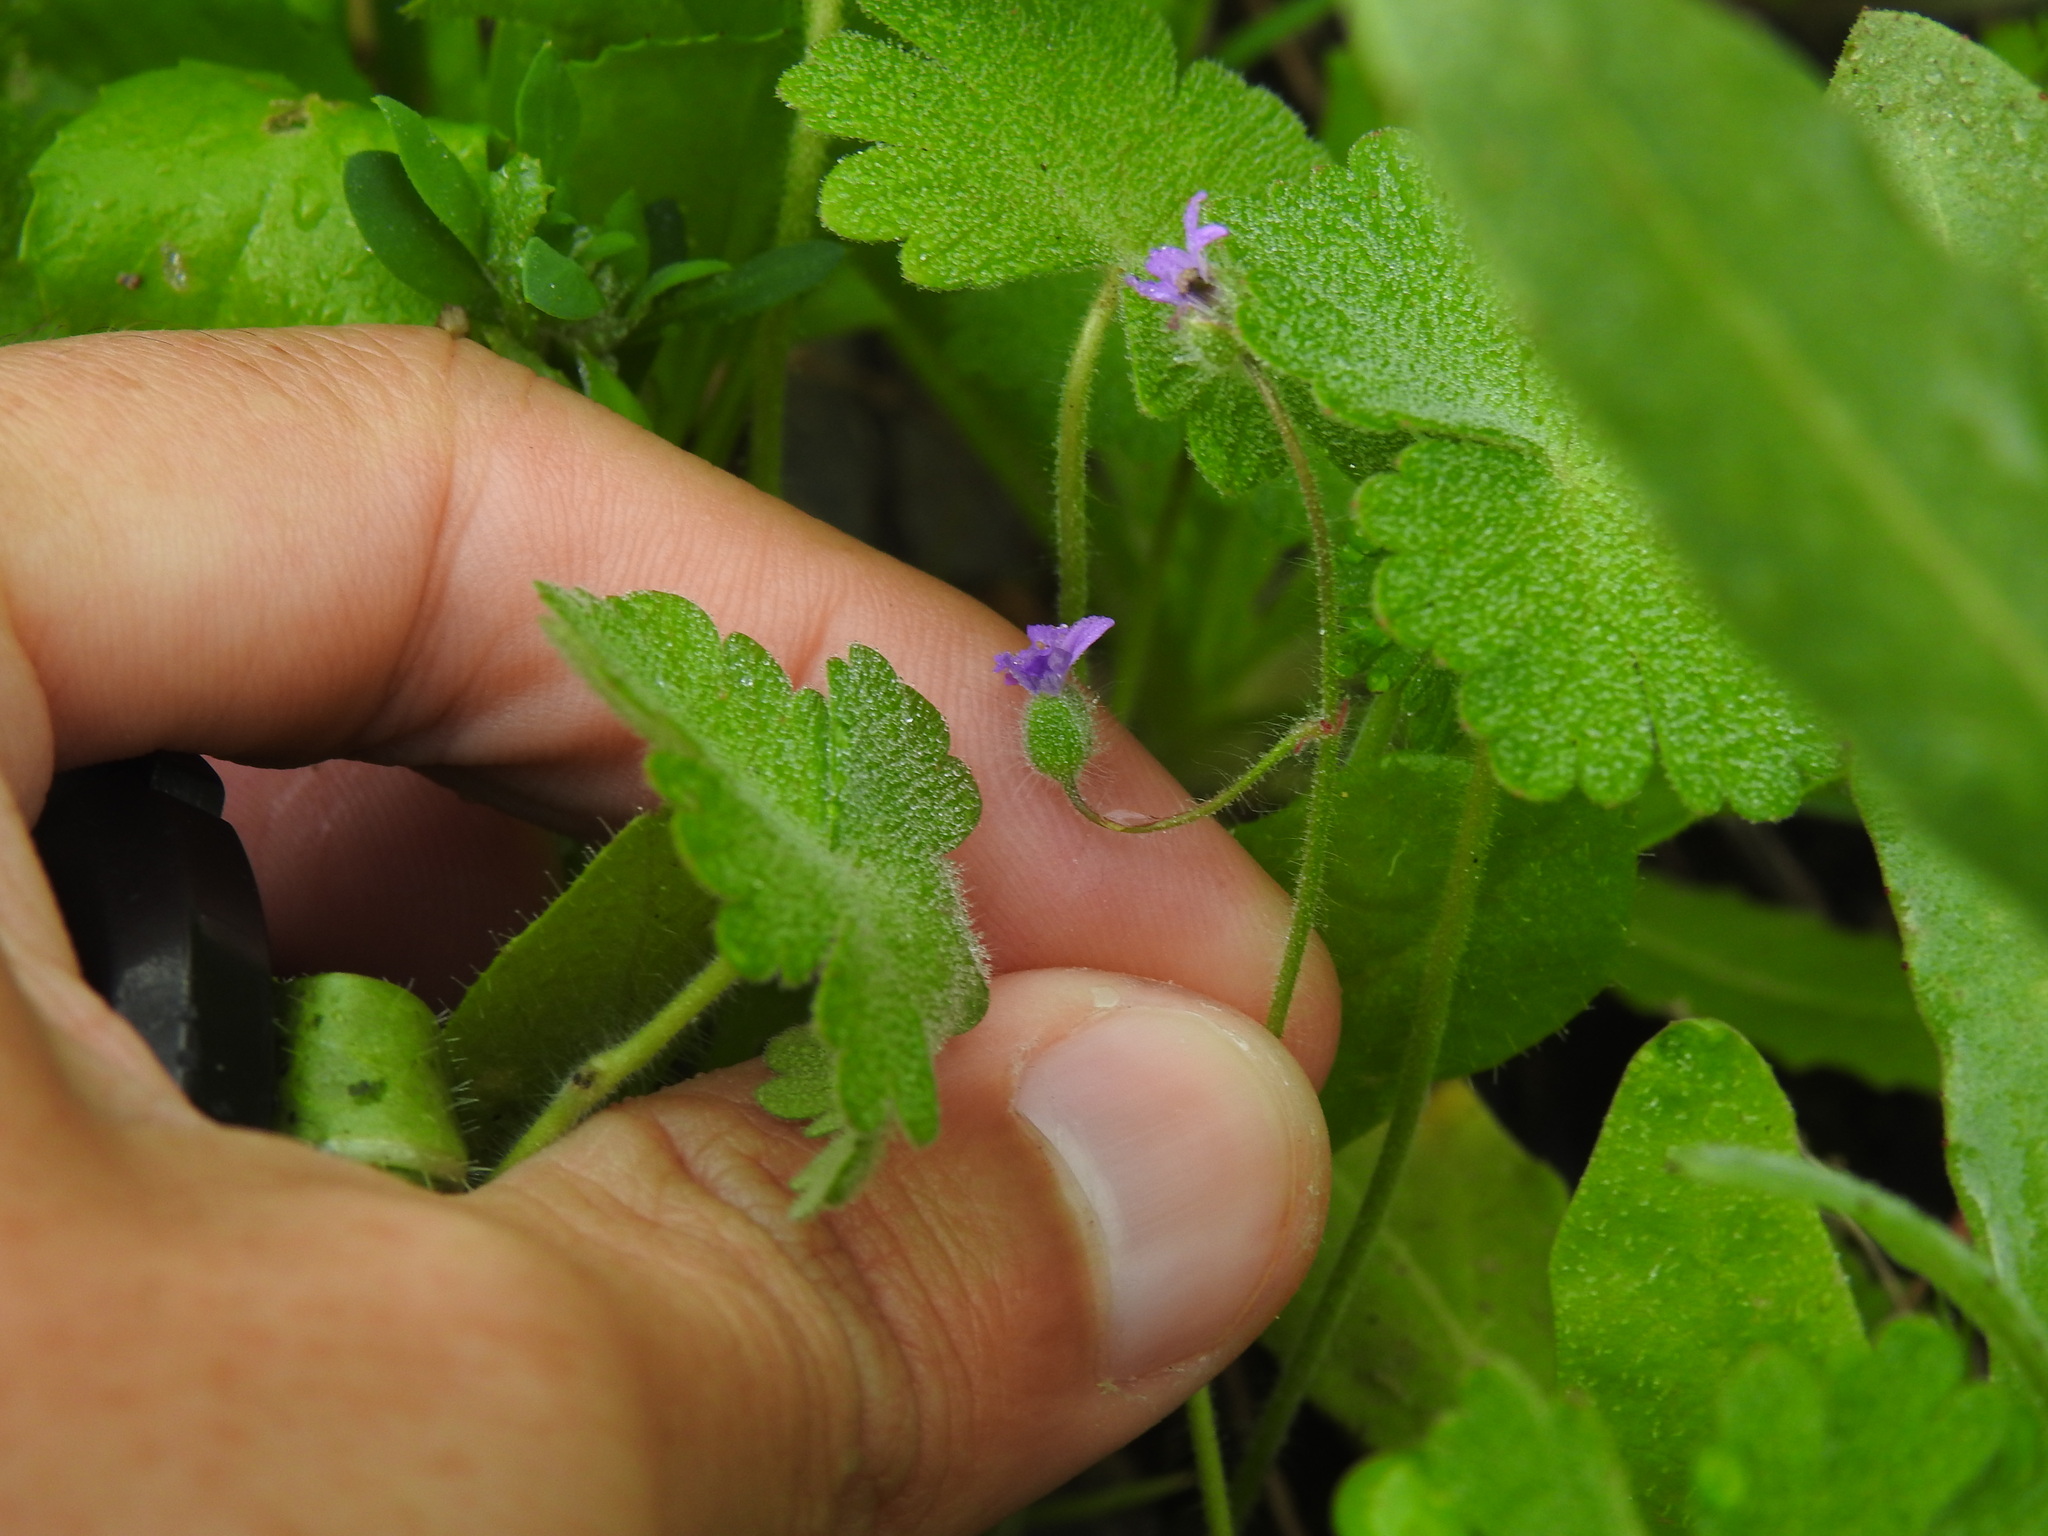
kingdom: Plantae
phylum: Tracheophyta
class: Magnoliopsida
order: Geraniales
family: Geraniaceae
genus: Geranium
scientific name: Geranium molle
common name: Dove's-foot crane's-bill
